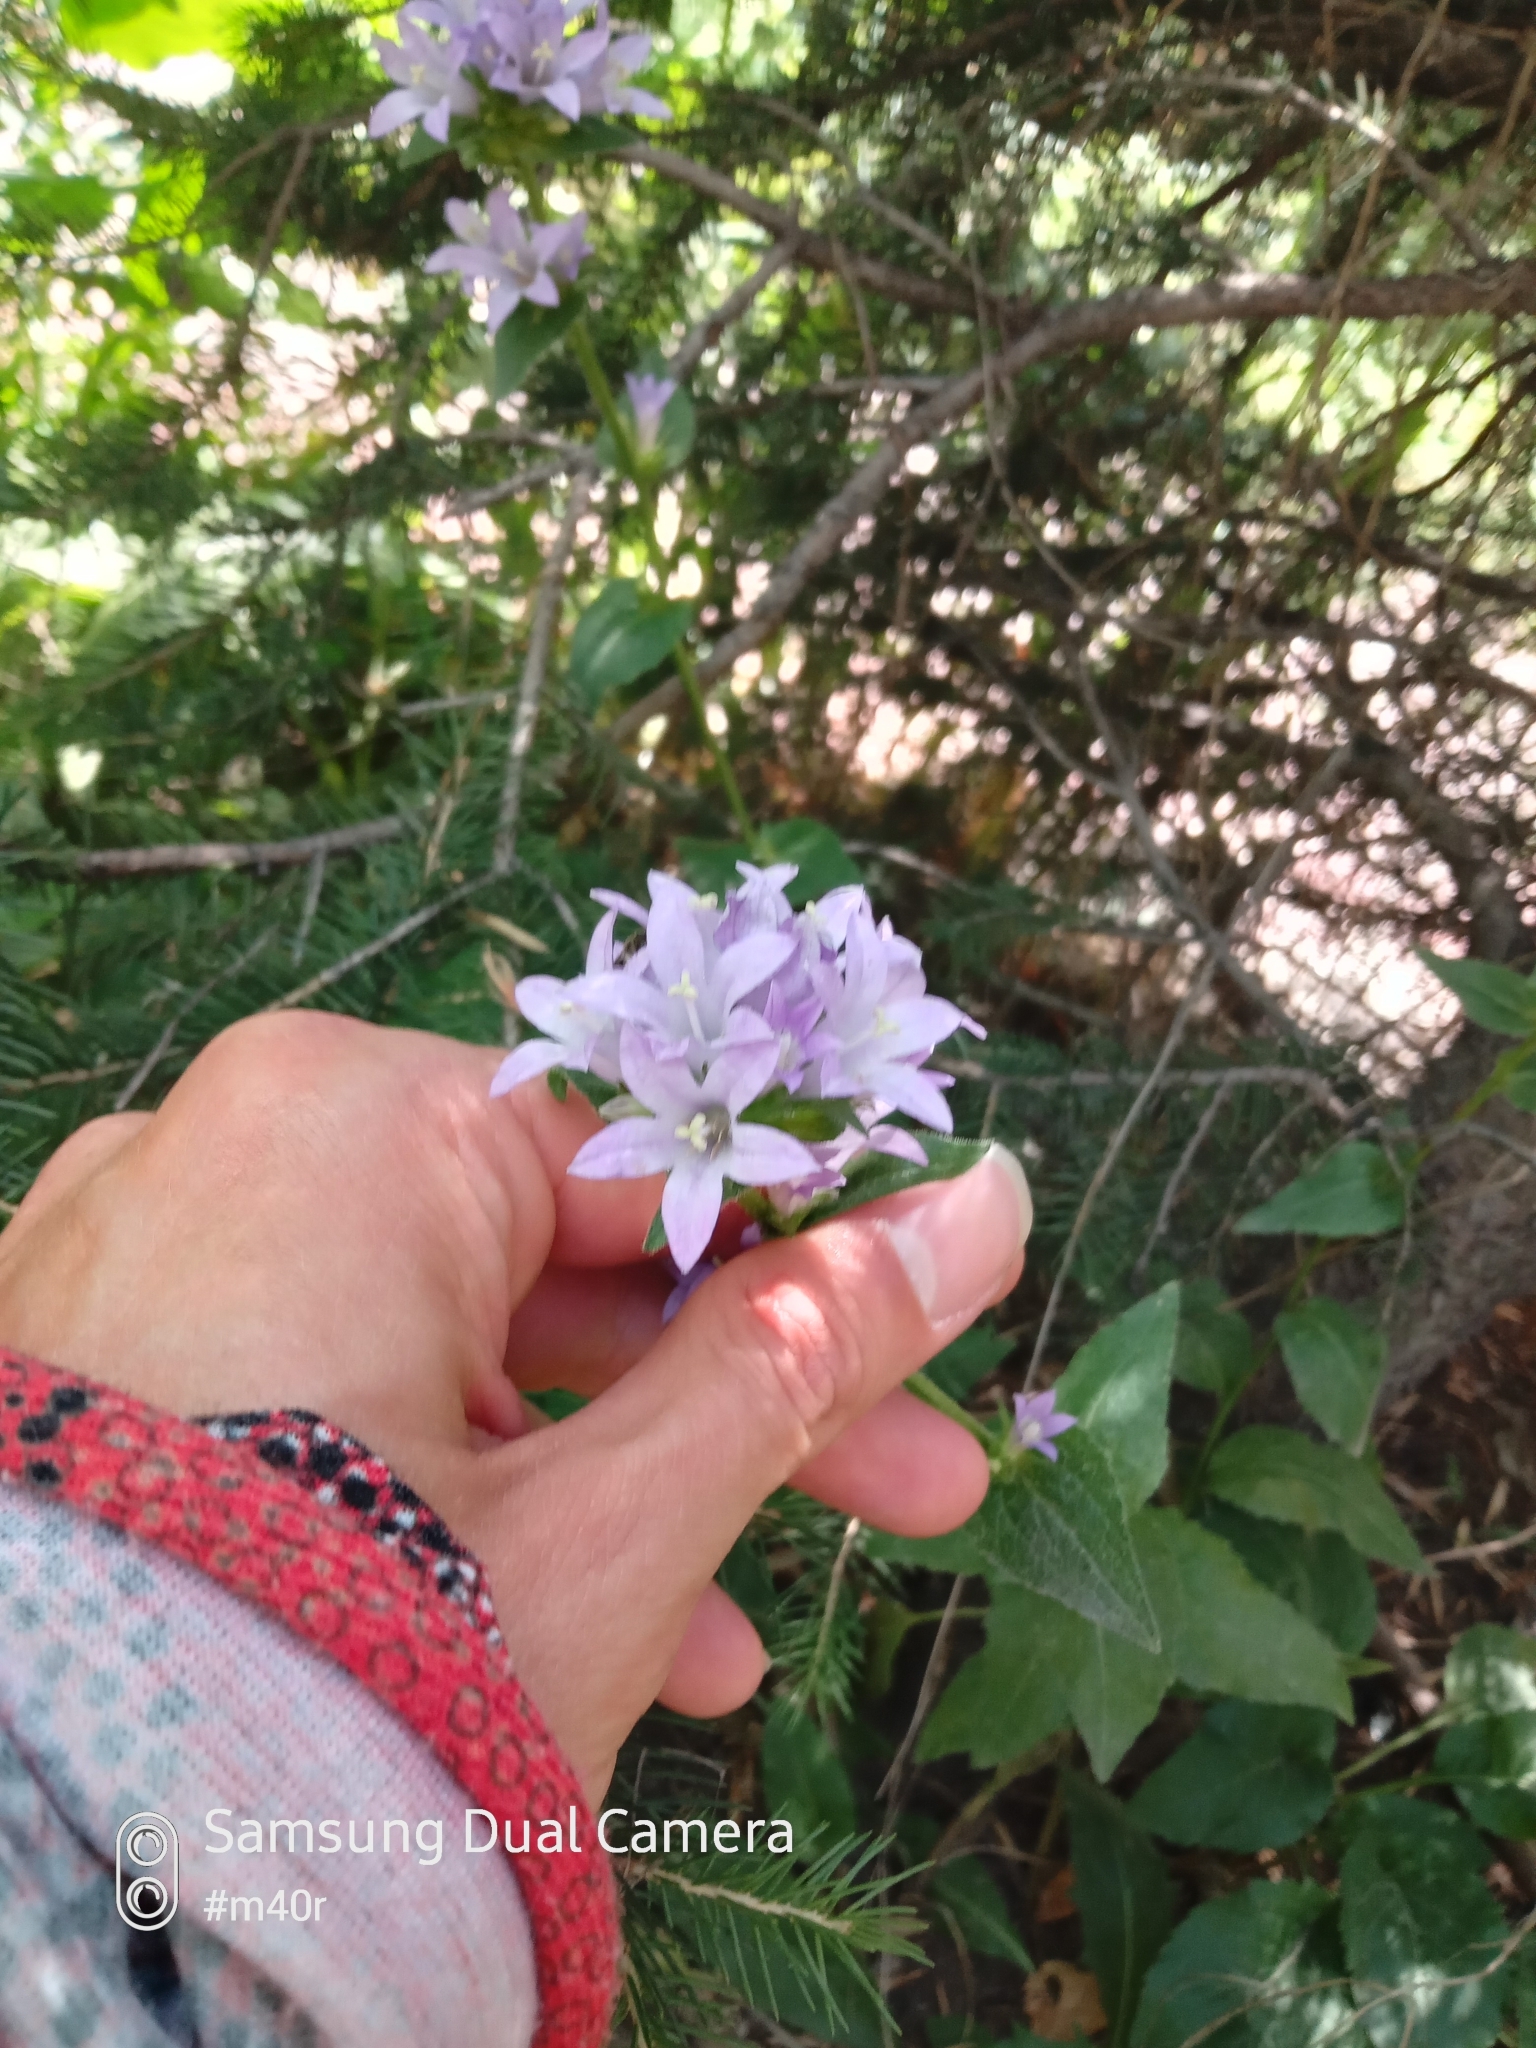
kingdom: Plantae
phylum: Tracheophyta
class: Magnoliopsida
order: Asterales
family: Campanulaceae
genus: Campanula
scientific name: Campanula glomerata
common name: Clustered bellflower
